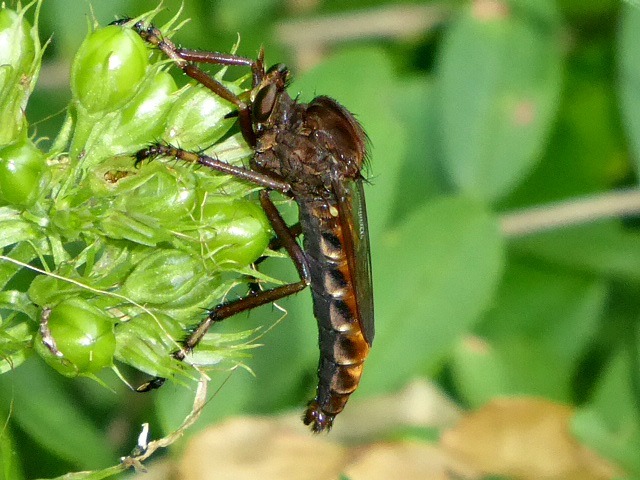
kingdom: Animalia
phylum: Arthropoda
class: Insecta
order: Diptera
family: Asilidae
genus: Diogmites
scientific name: Diogmites basalis
